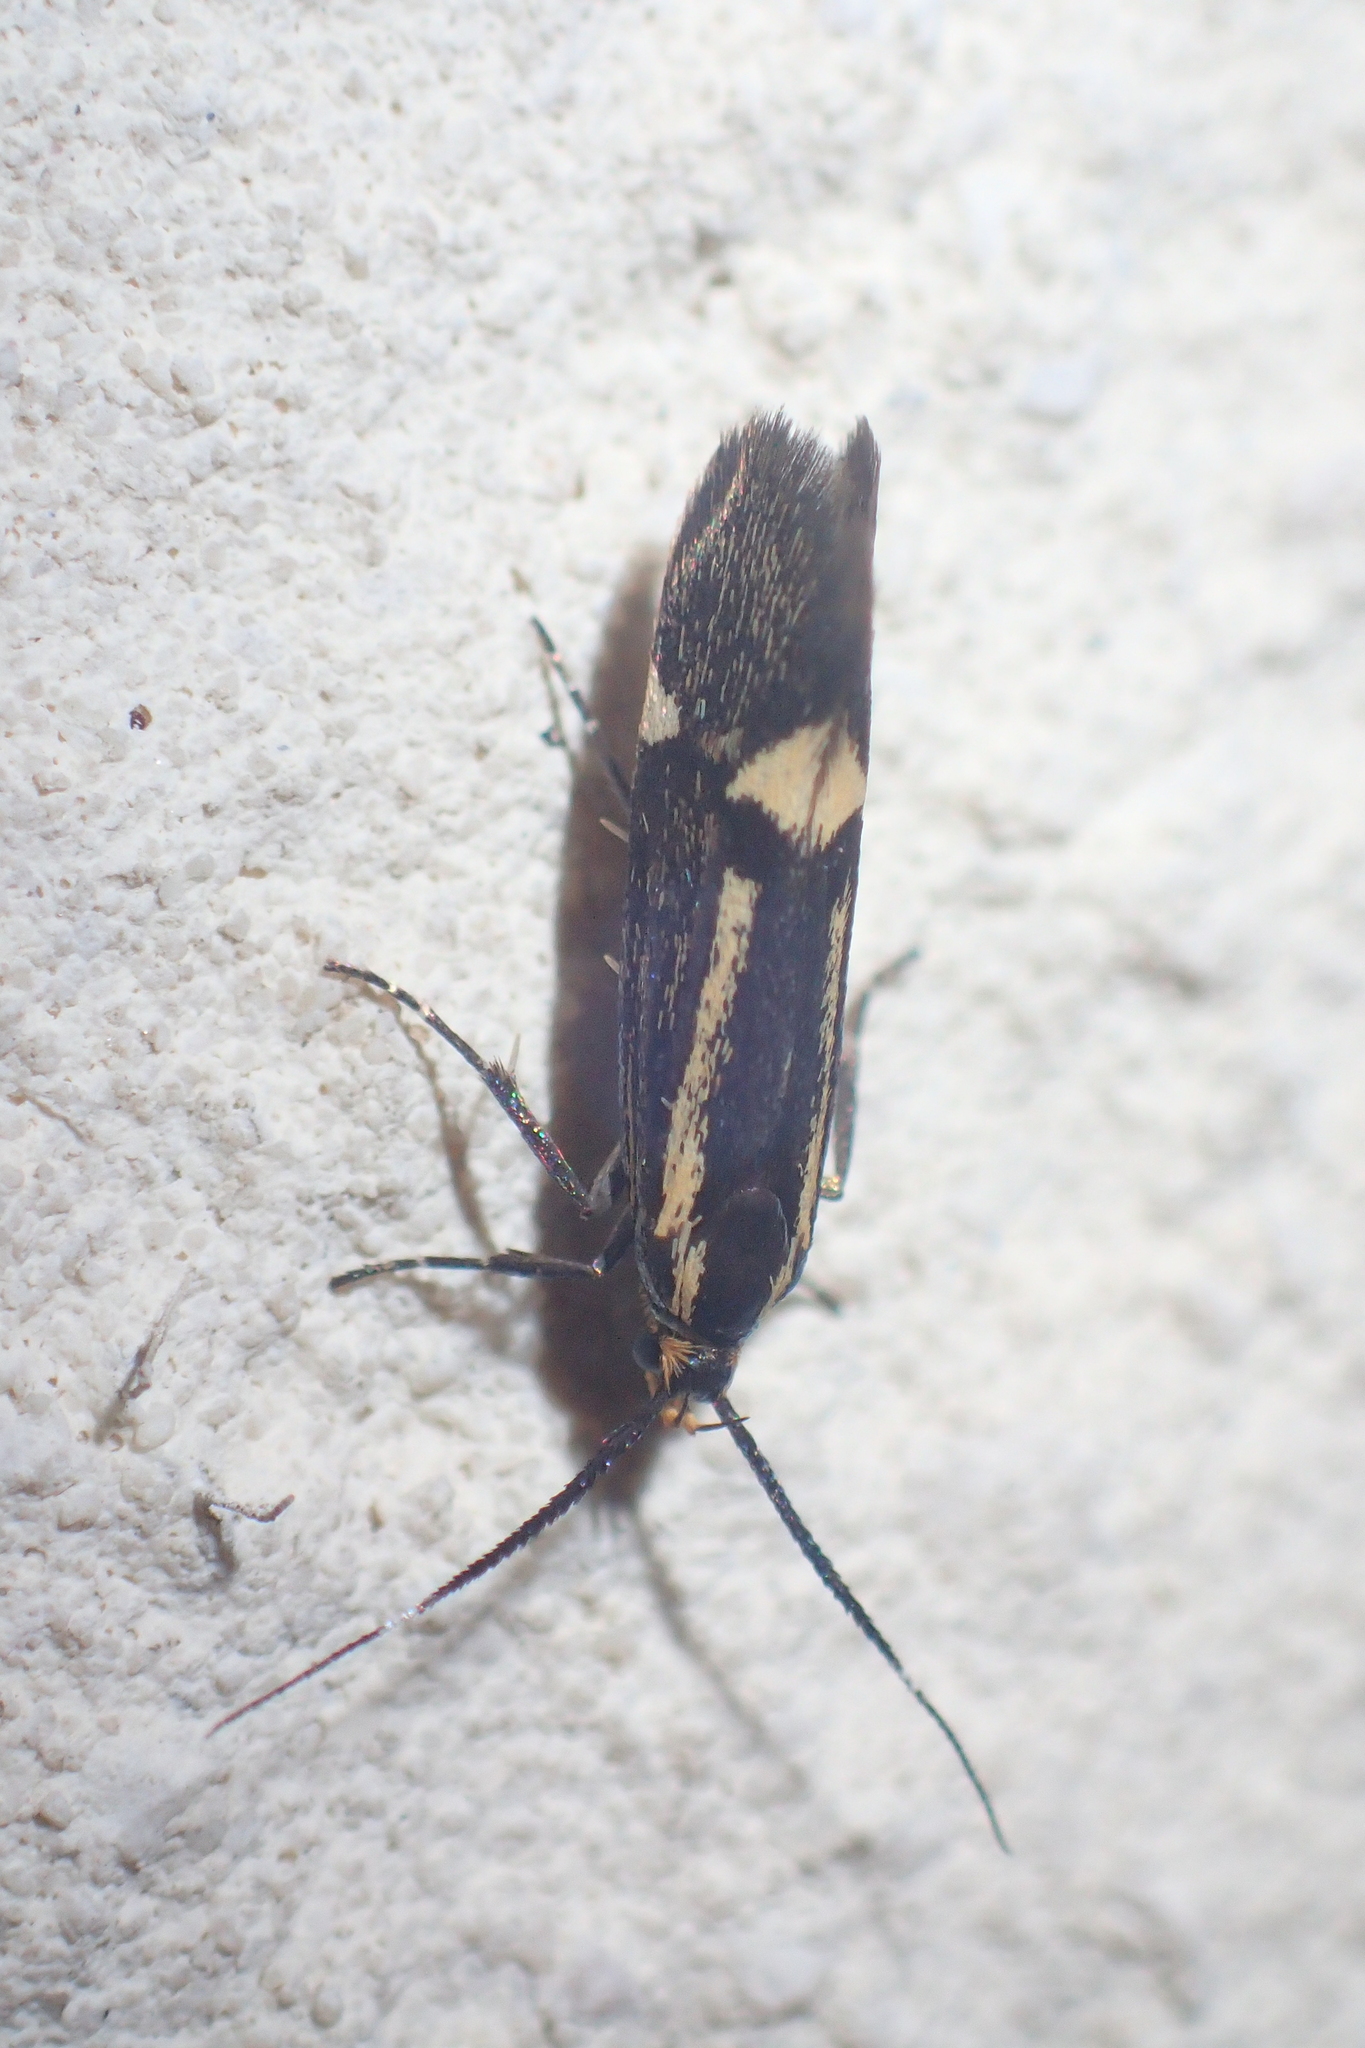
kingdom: Animalia
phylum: Arthropoda
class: Insecta
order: Lepidoptera
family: Oecophoridae
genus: Dafa
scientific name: Dafa Esperia sulphurella
